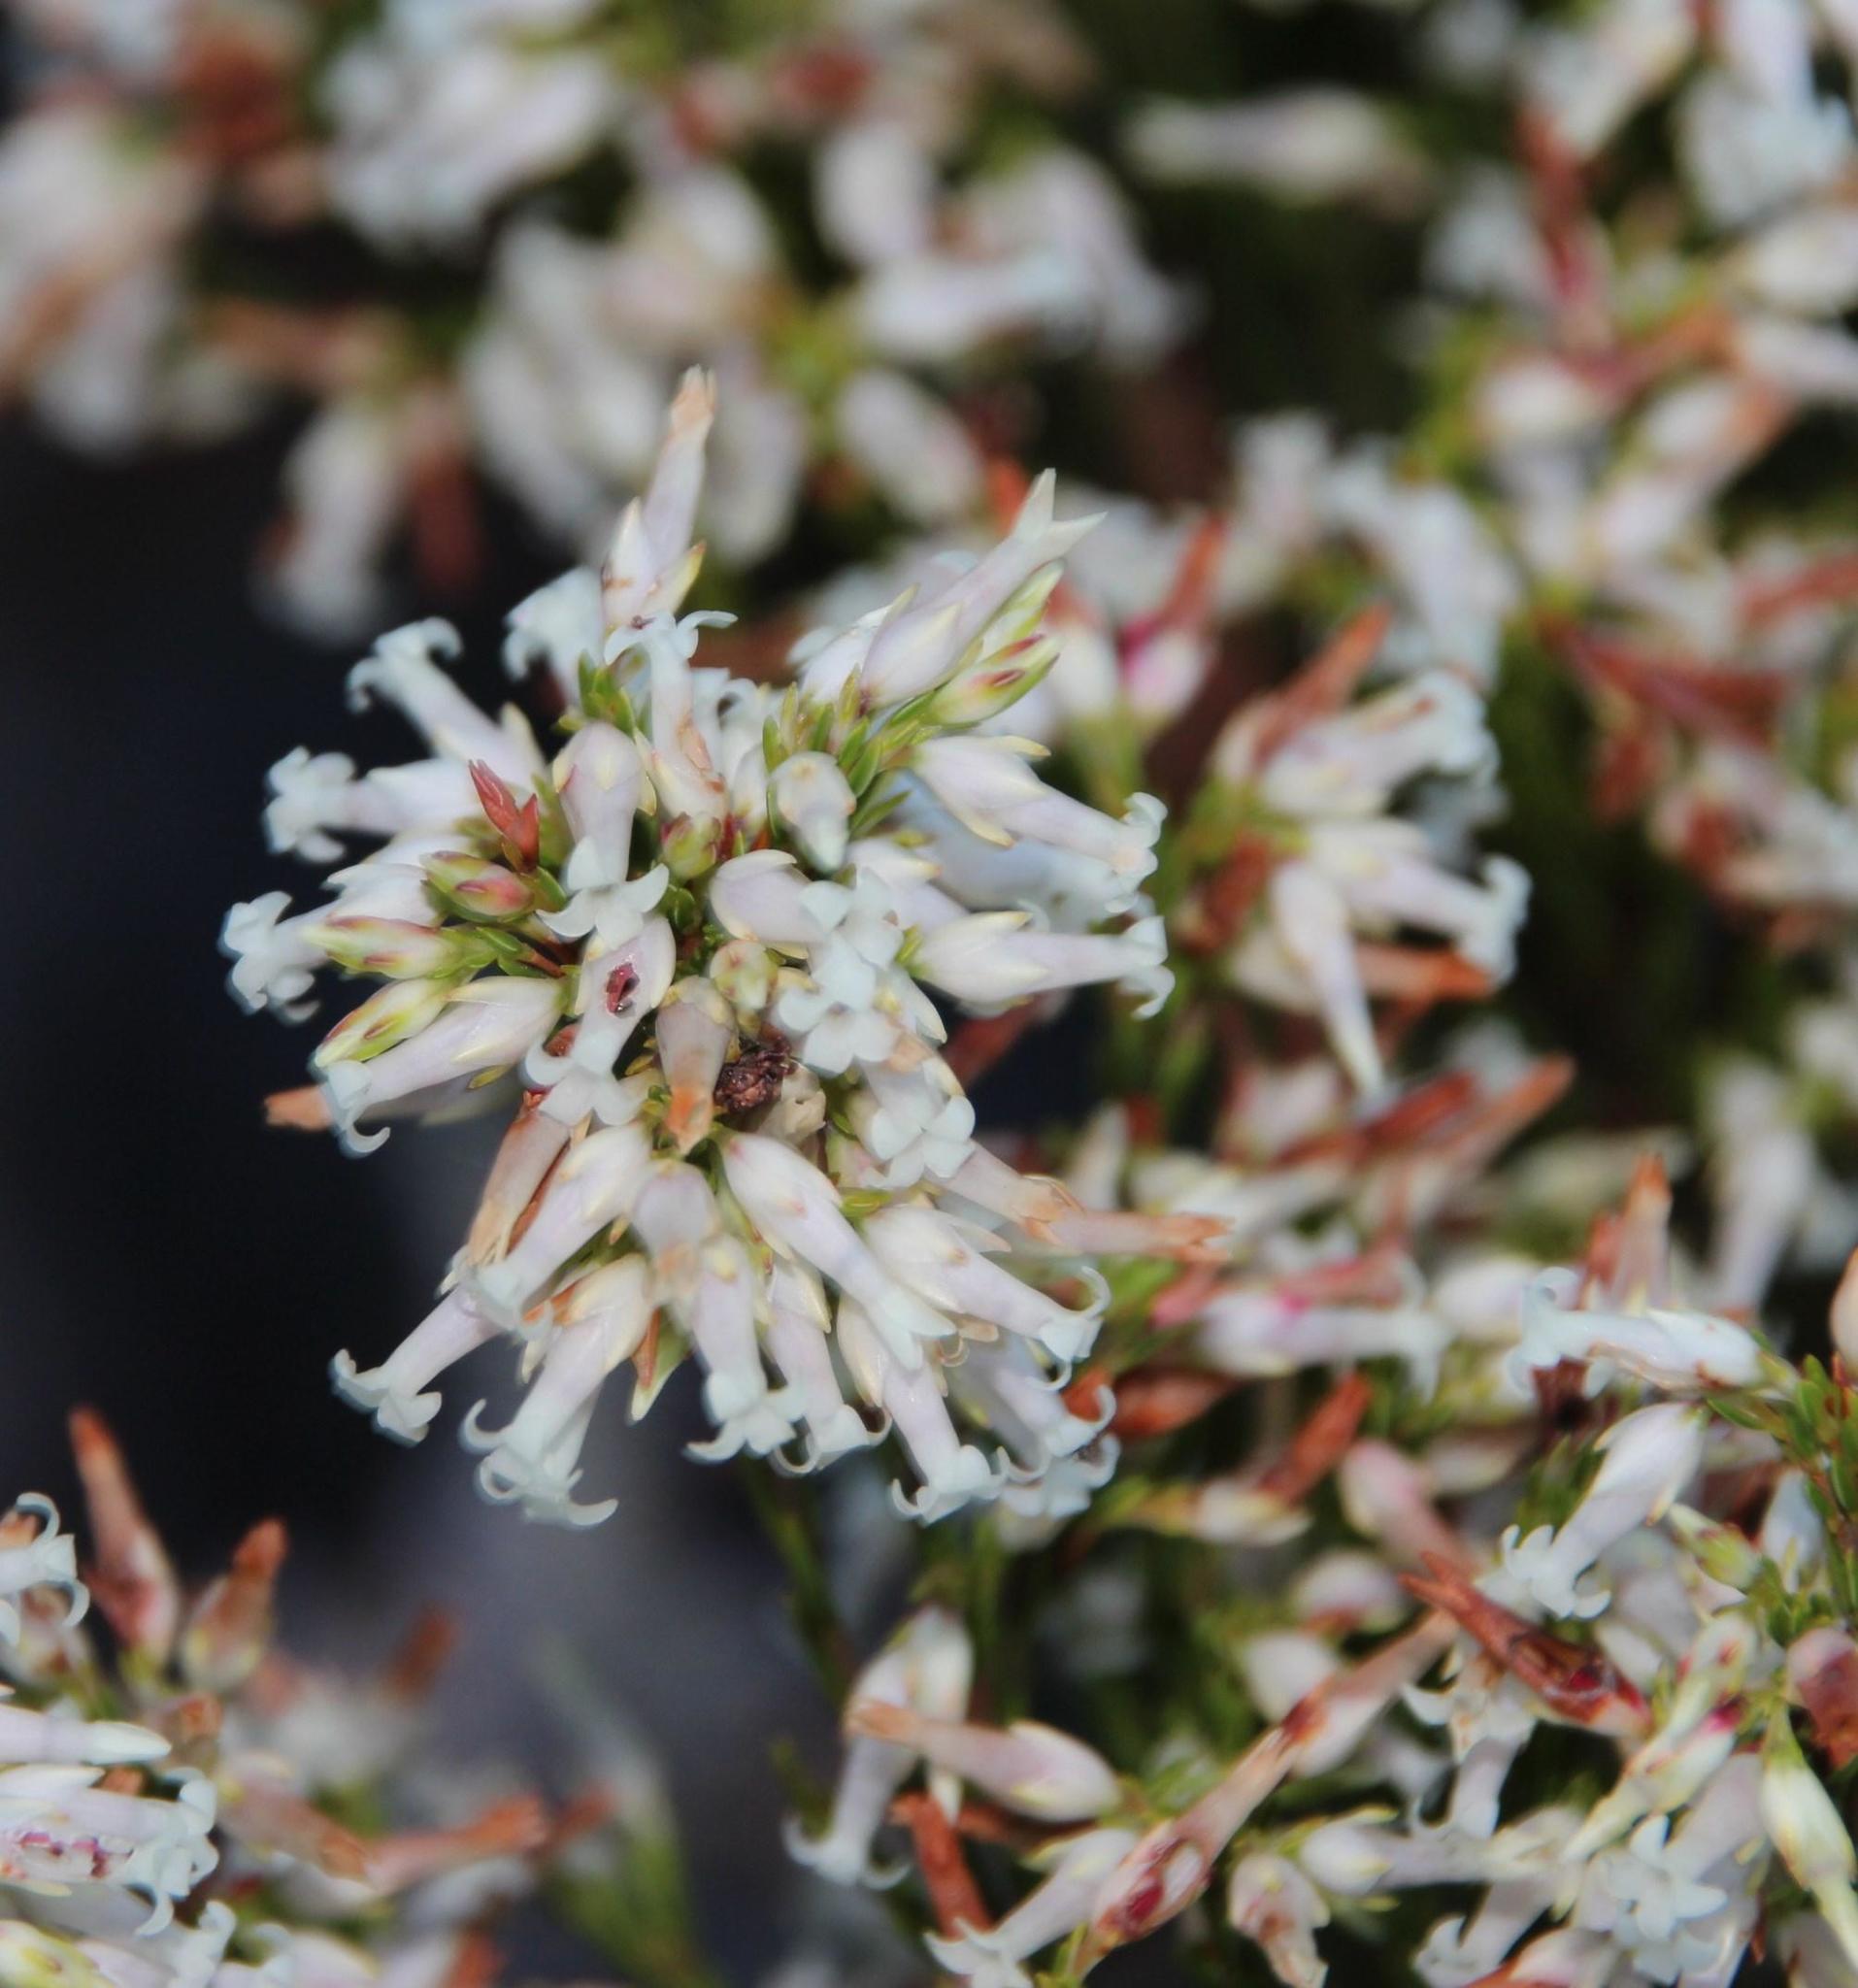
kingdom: Plantae
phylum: Tracheophyta
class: Magnoliopsida
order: Ericales
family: Ericaceae
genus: Erica
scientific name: Erica lutea
